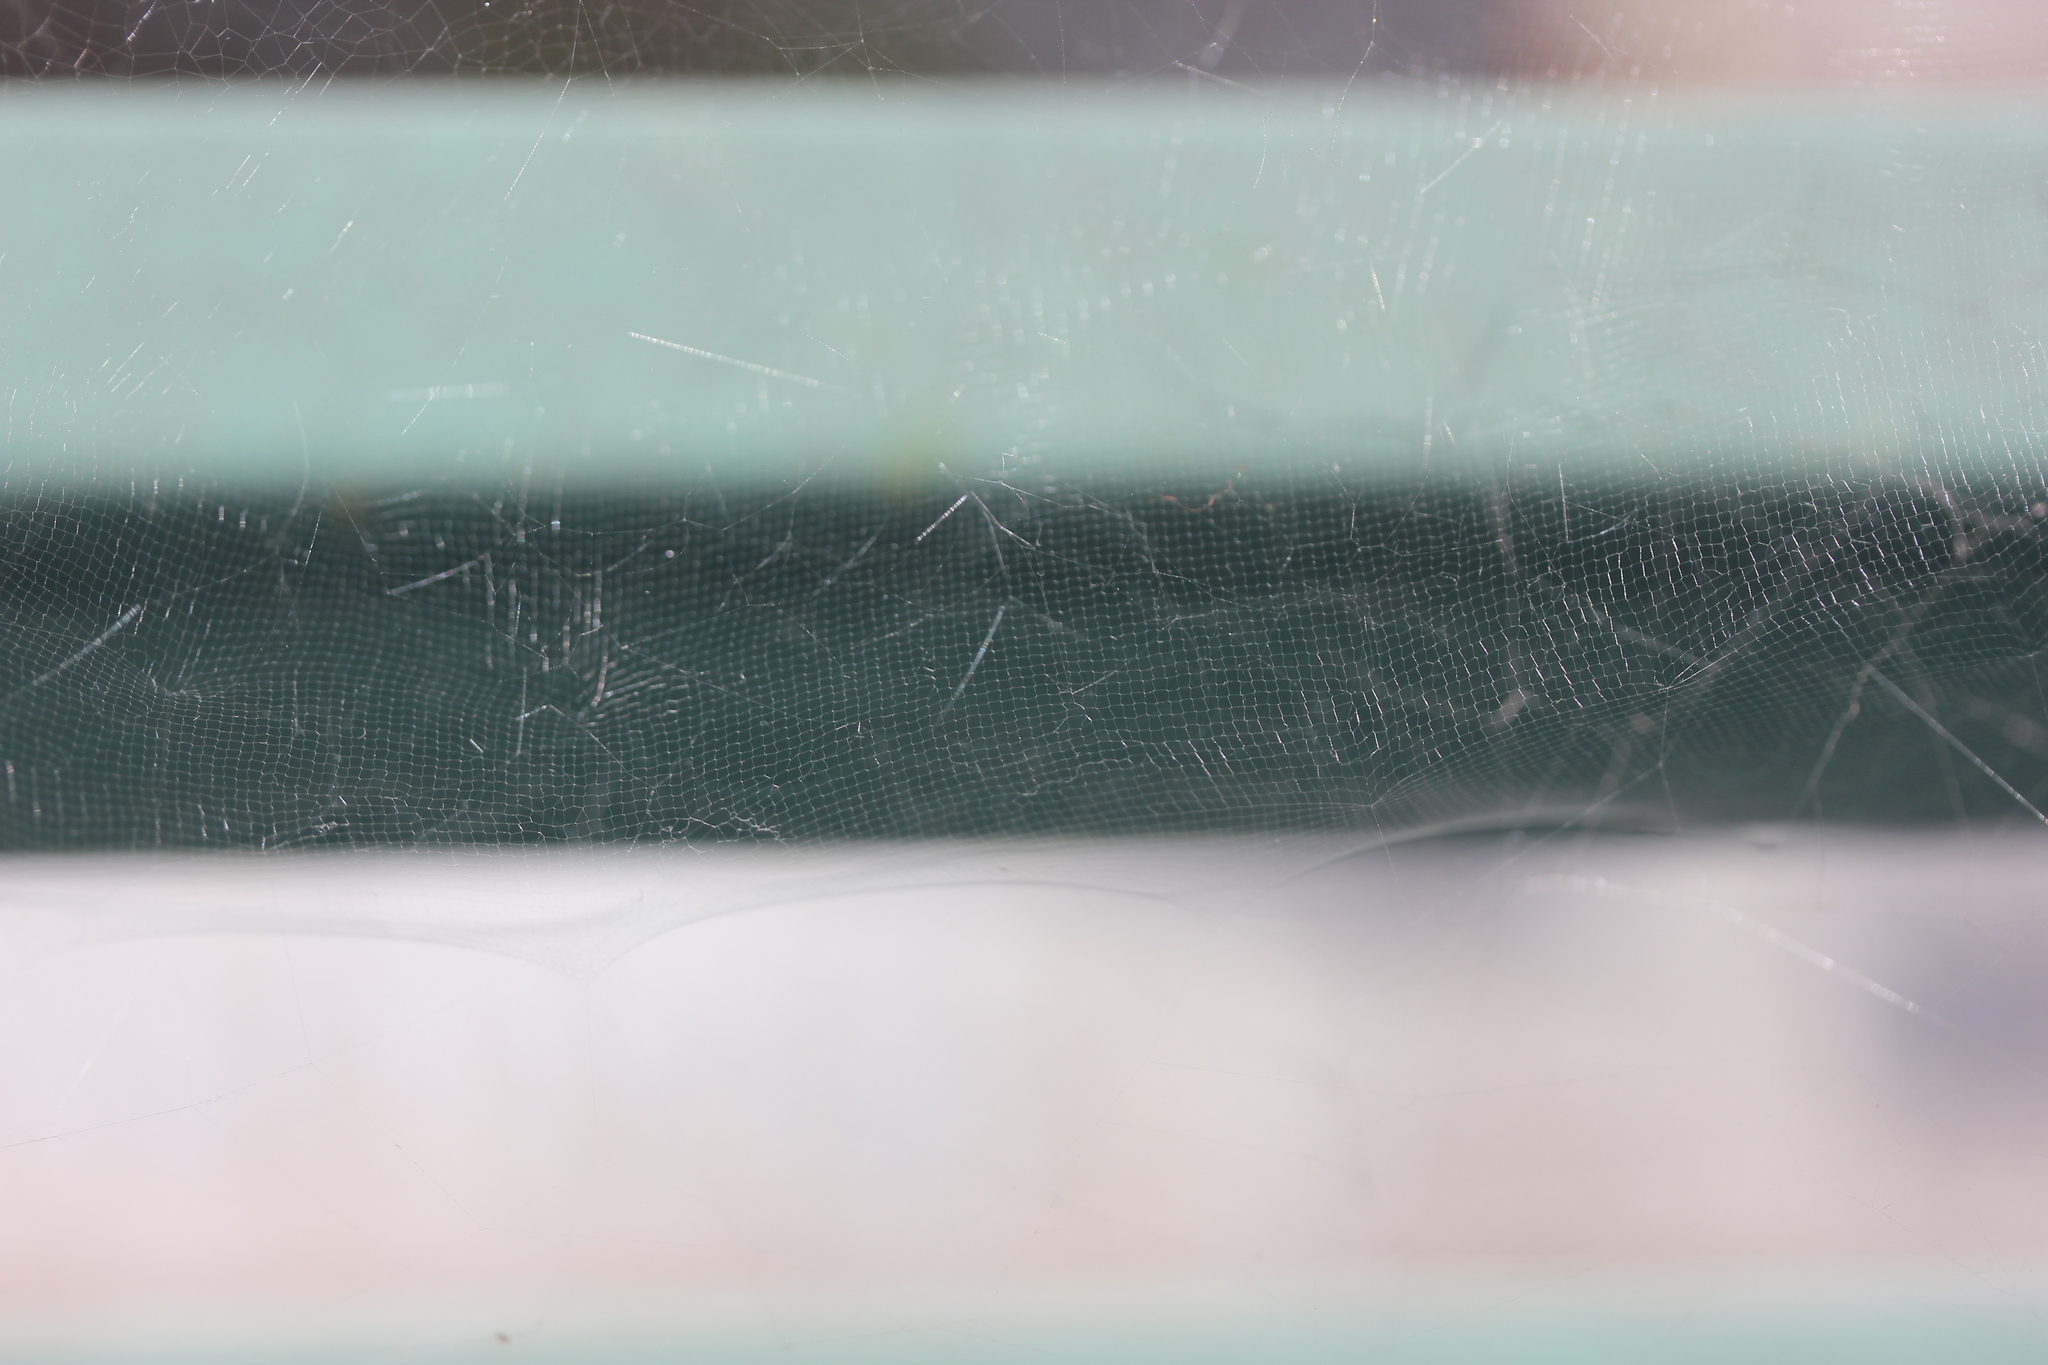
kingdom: Animalia
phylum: Arthropoda
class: Arachnida
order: Araneae
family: Araneidae
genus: Cyrtophora
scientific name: Cyrtophora citricola
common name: Orb weavers
